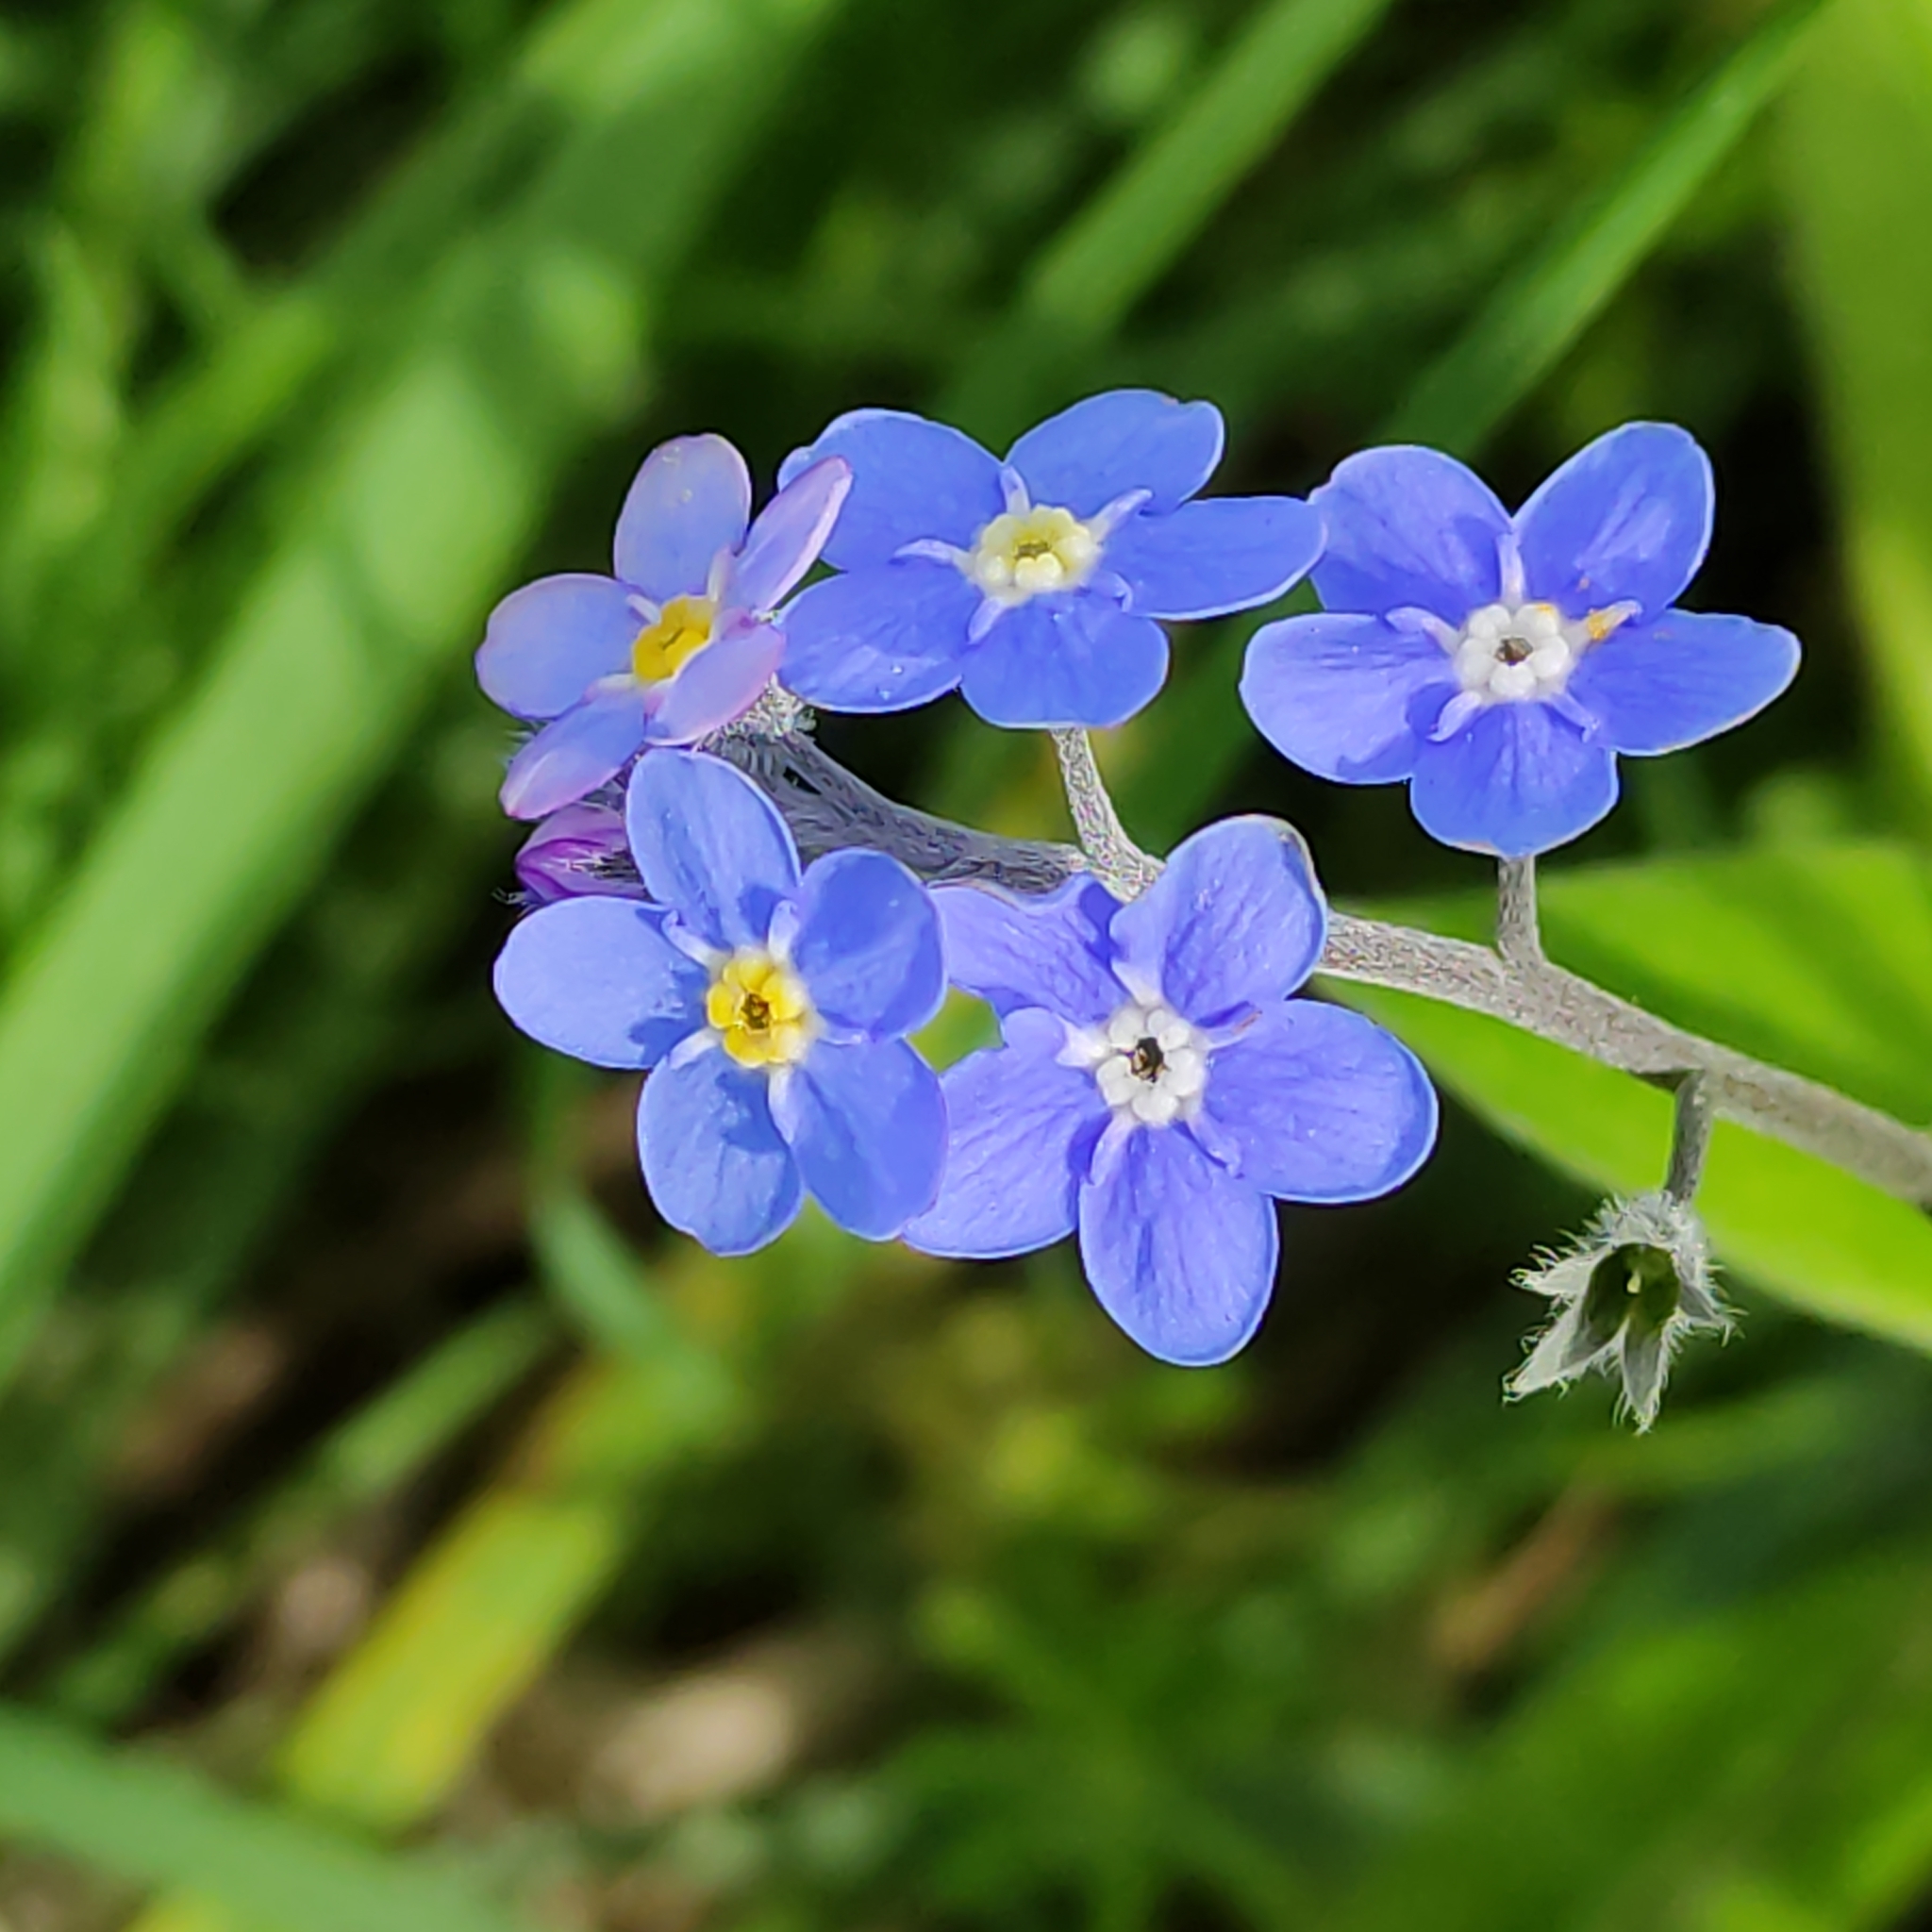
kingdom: Plantae
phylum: Tracheophyta
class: Magnoliopsida
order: Boraginales
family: Boraginaceae
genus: Myosotis
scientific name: Myosotis sylvatica
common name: Wood forget-me-not
